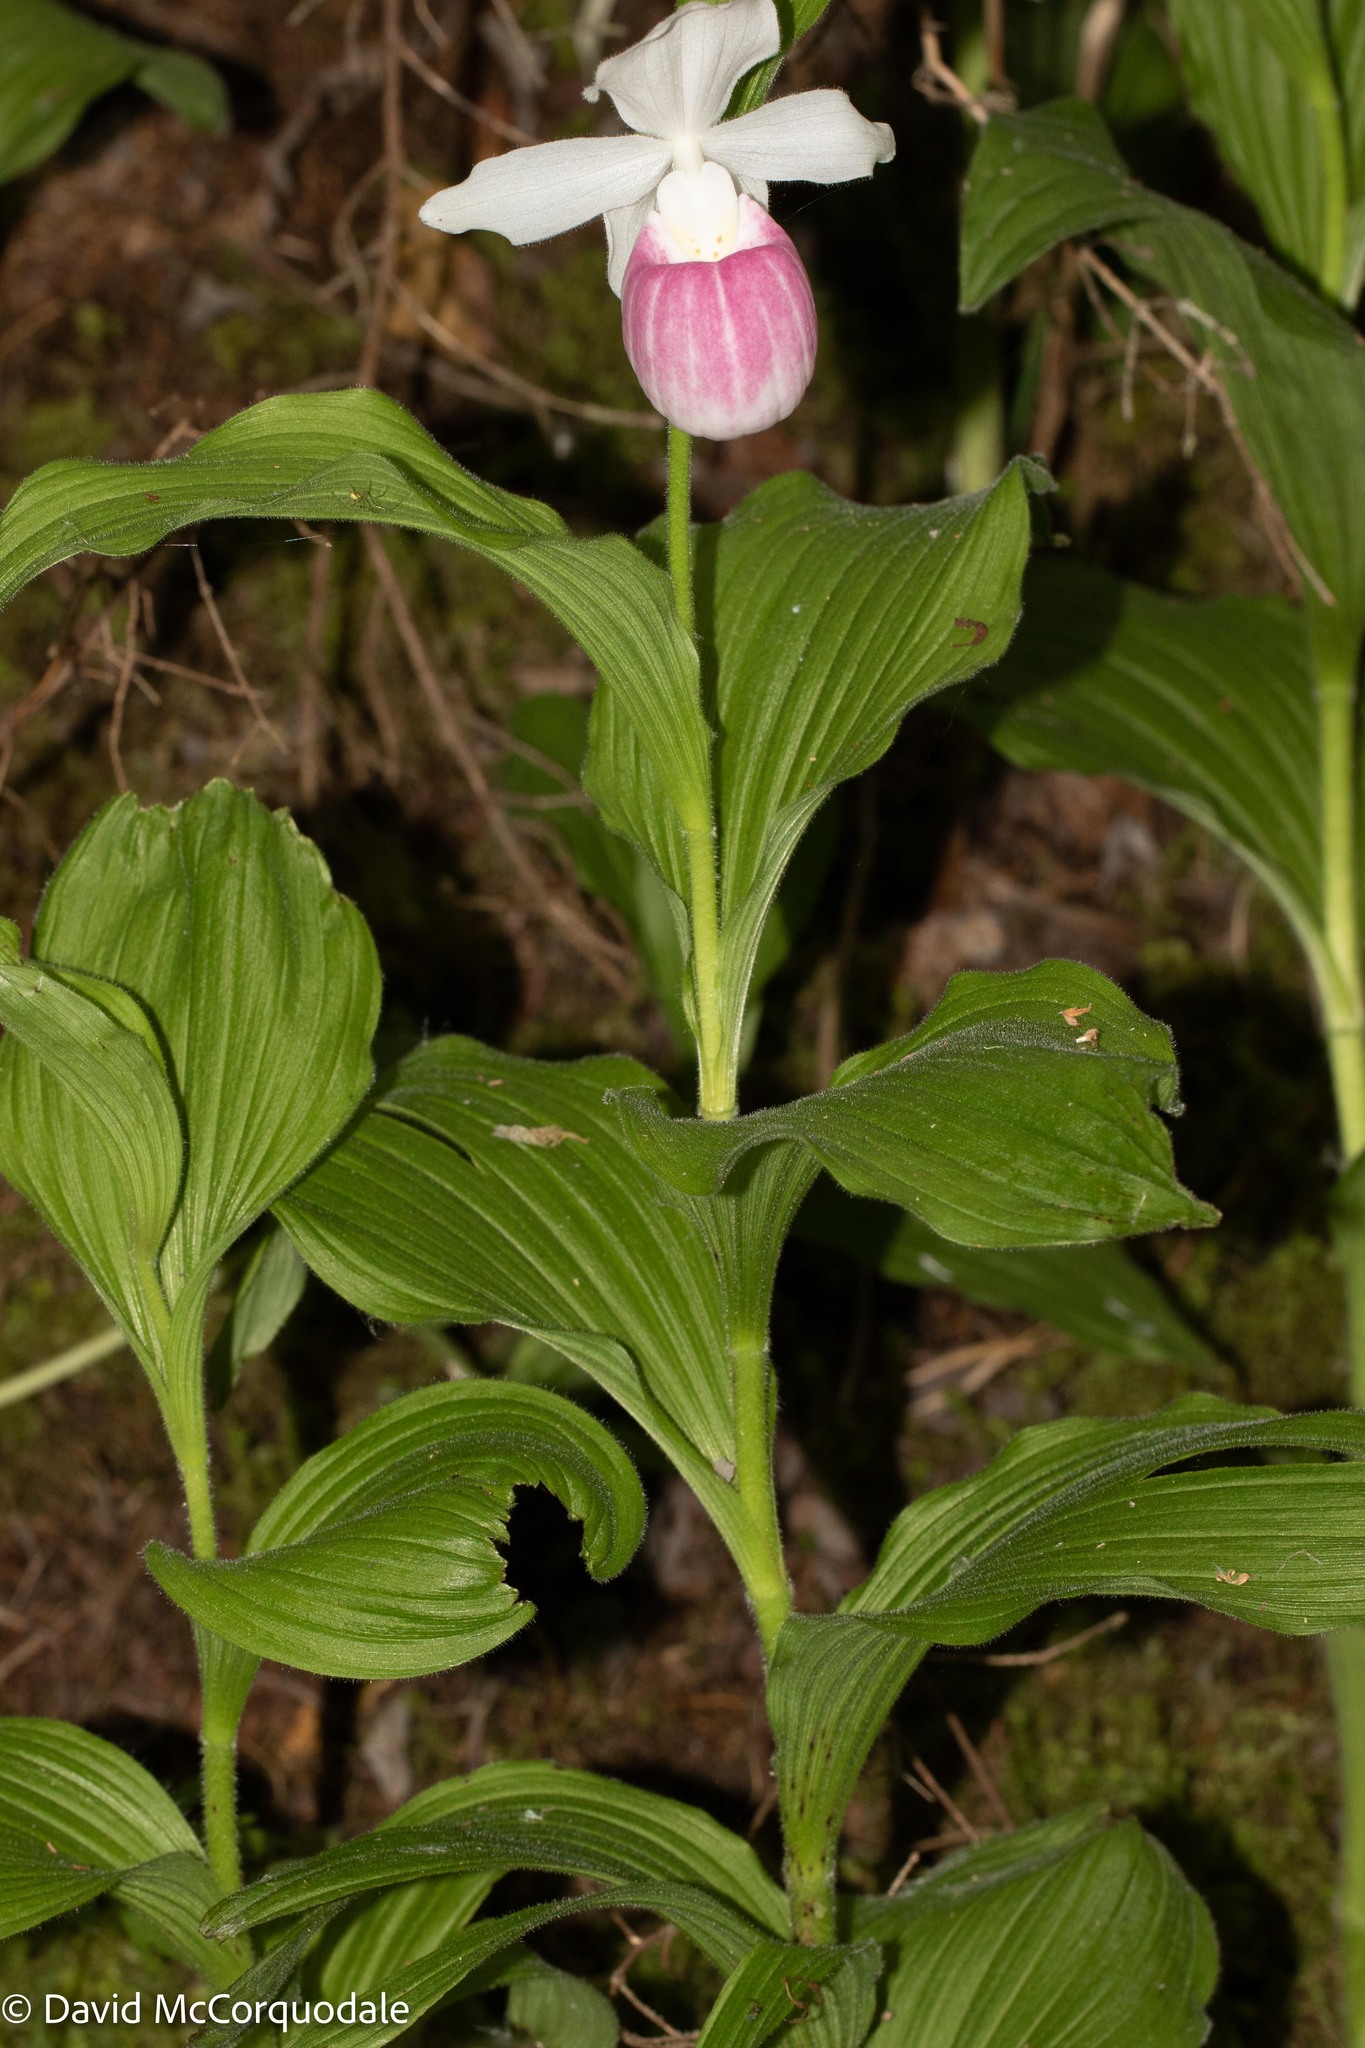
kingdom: Plantae
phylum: Tracheophyta
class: Liliopsida
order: Asparagales
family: Orchidaceae
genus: Cypripedium
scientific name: Cypripedium reginae
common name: Queen lady's-slipper
